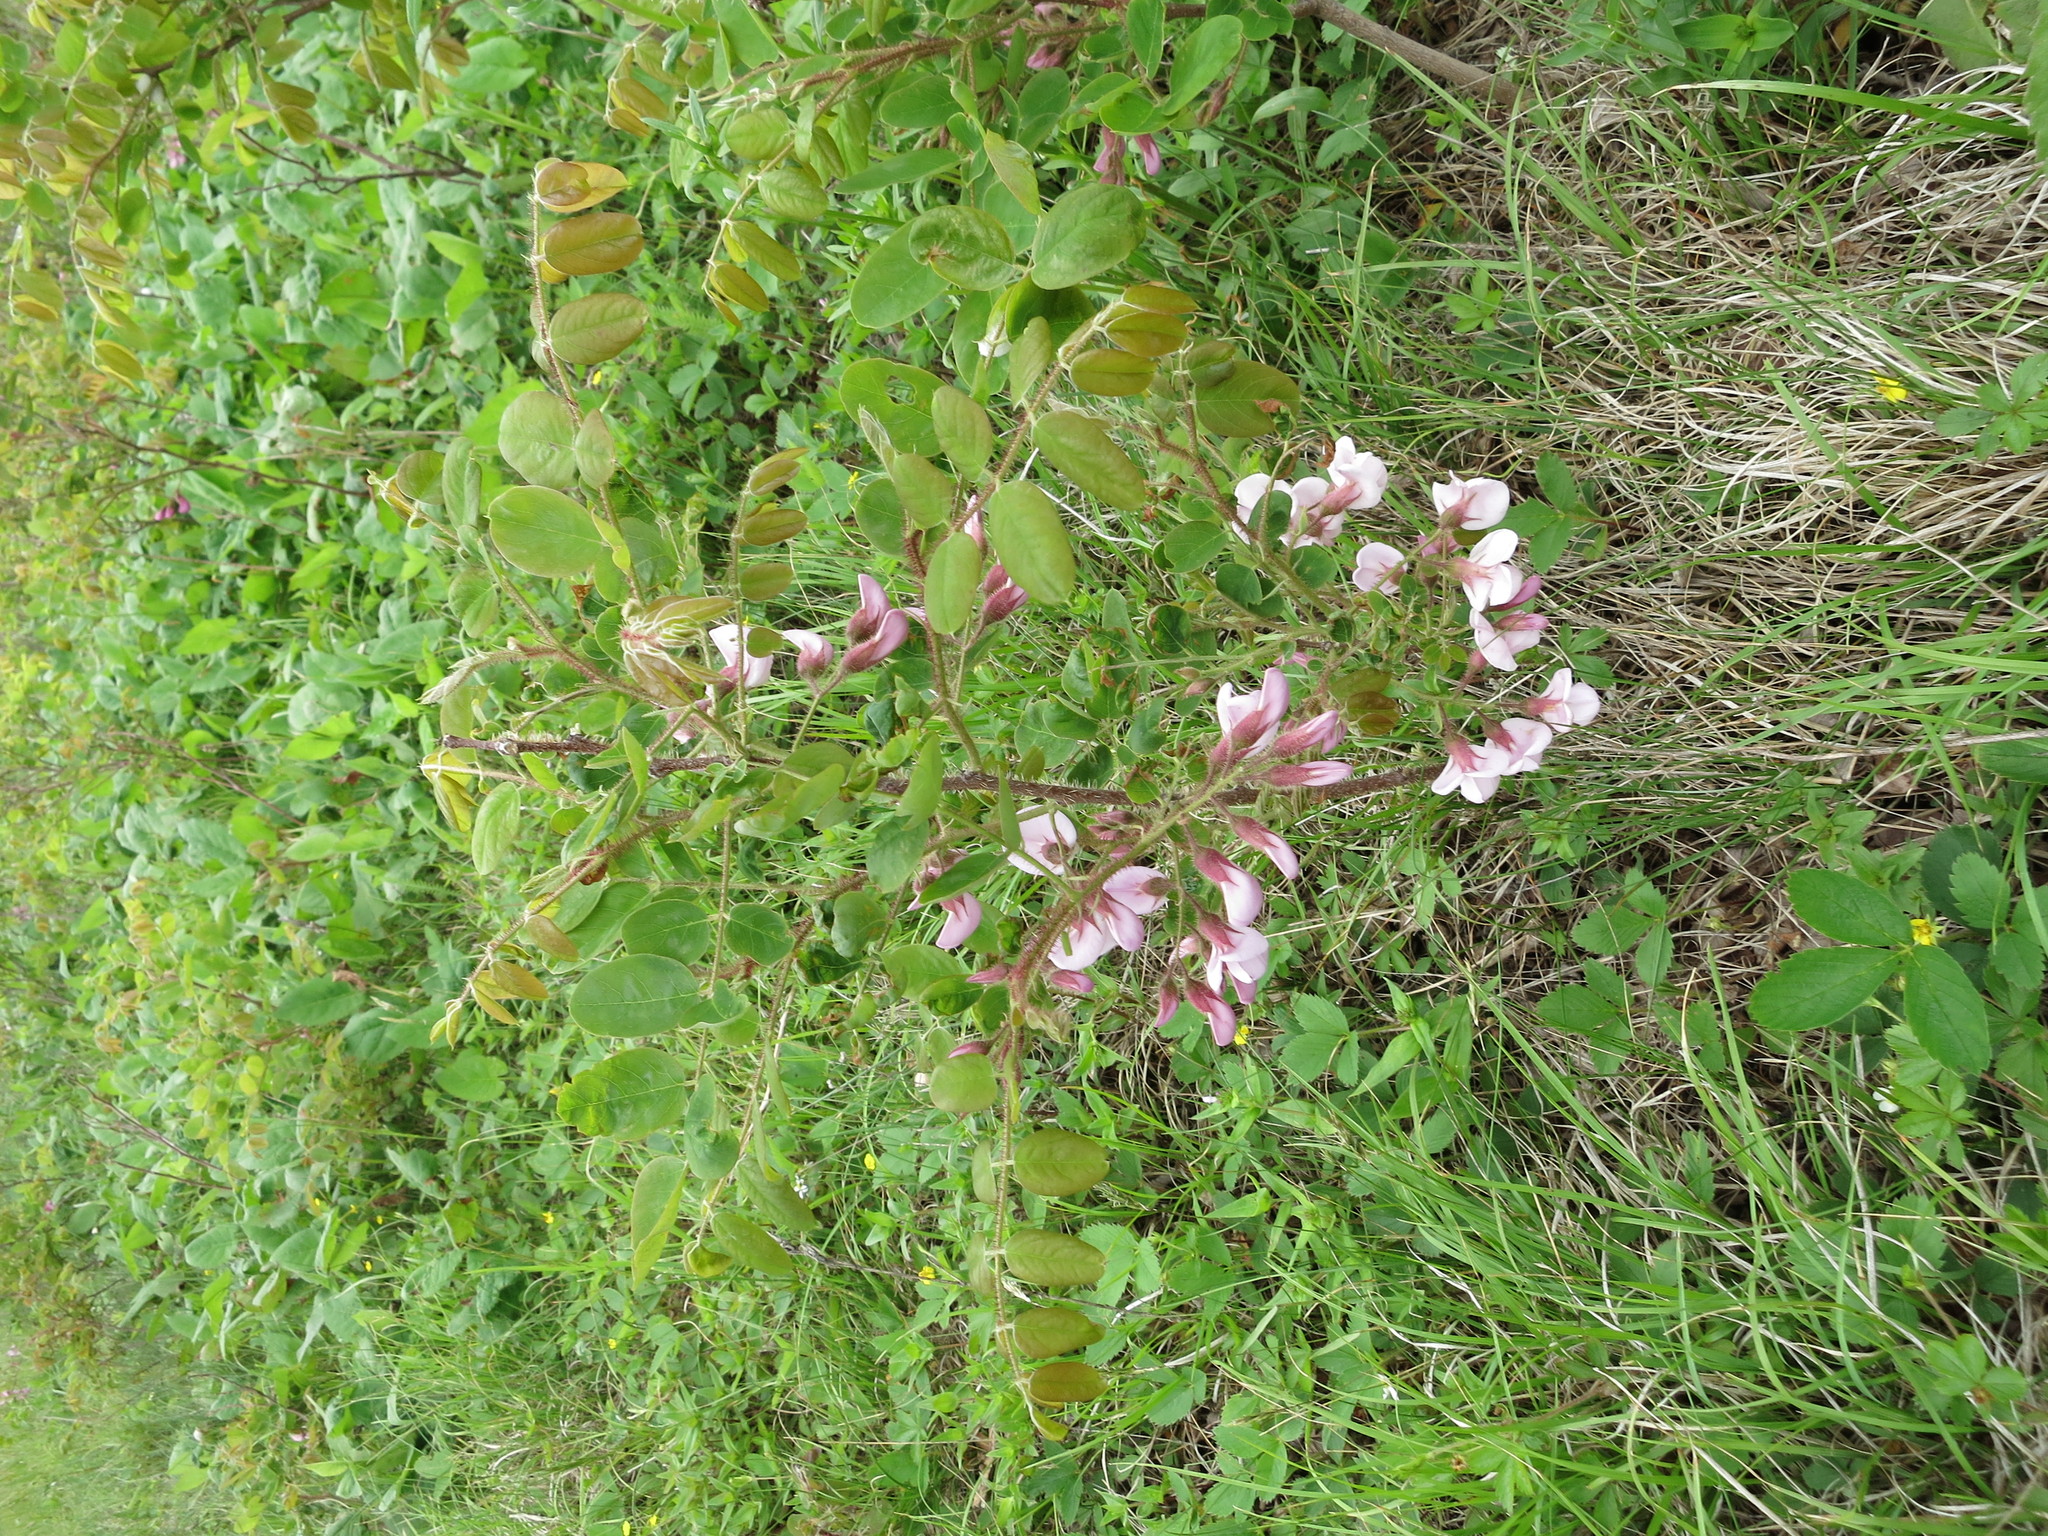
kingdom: Plantae
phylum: Tracheophyta
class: Magnoliopsida
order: Fabales
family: Fabaceae
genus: Robinia
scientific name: Robinia hispida
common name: Bristly locust
